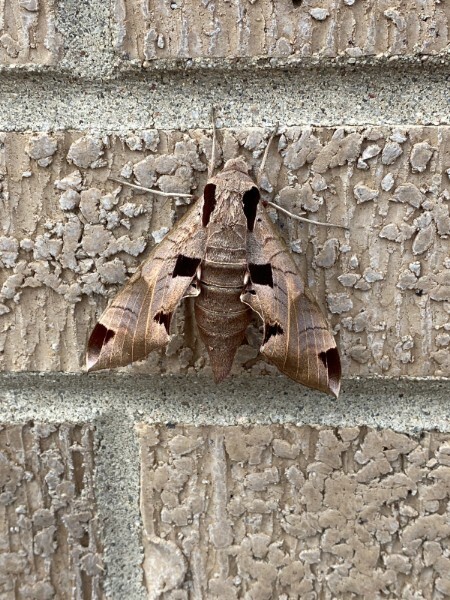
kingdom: Animalia
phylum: Arthropoda
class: Insecta
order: Lepidoptera
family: Sphingidae
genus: Eumorpha
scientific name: Eumorpha achemon
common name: Achemon sphinx
